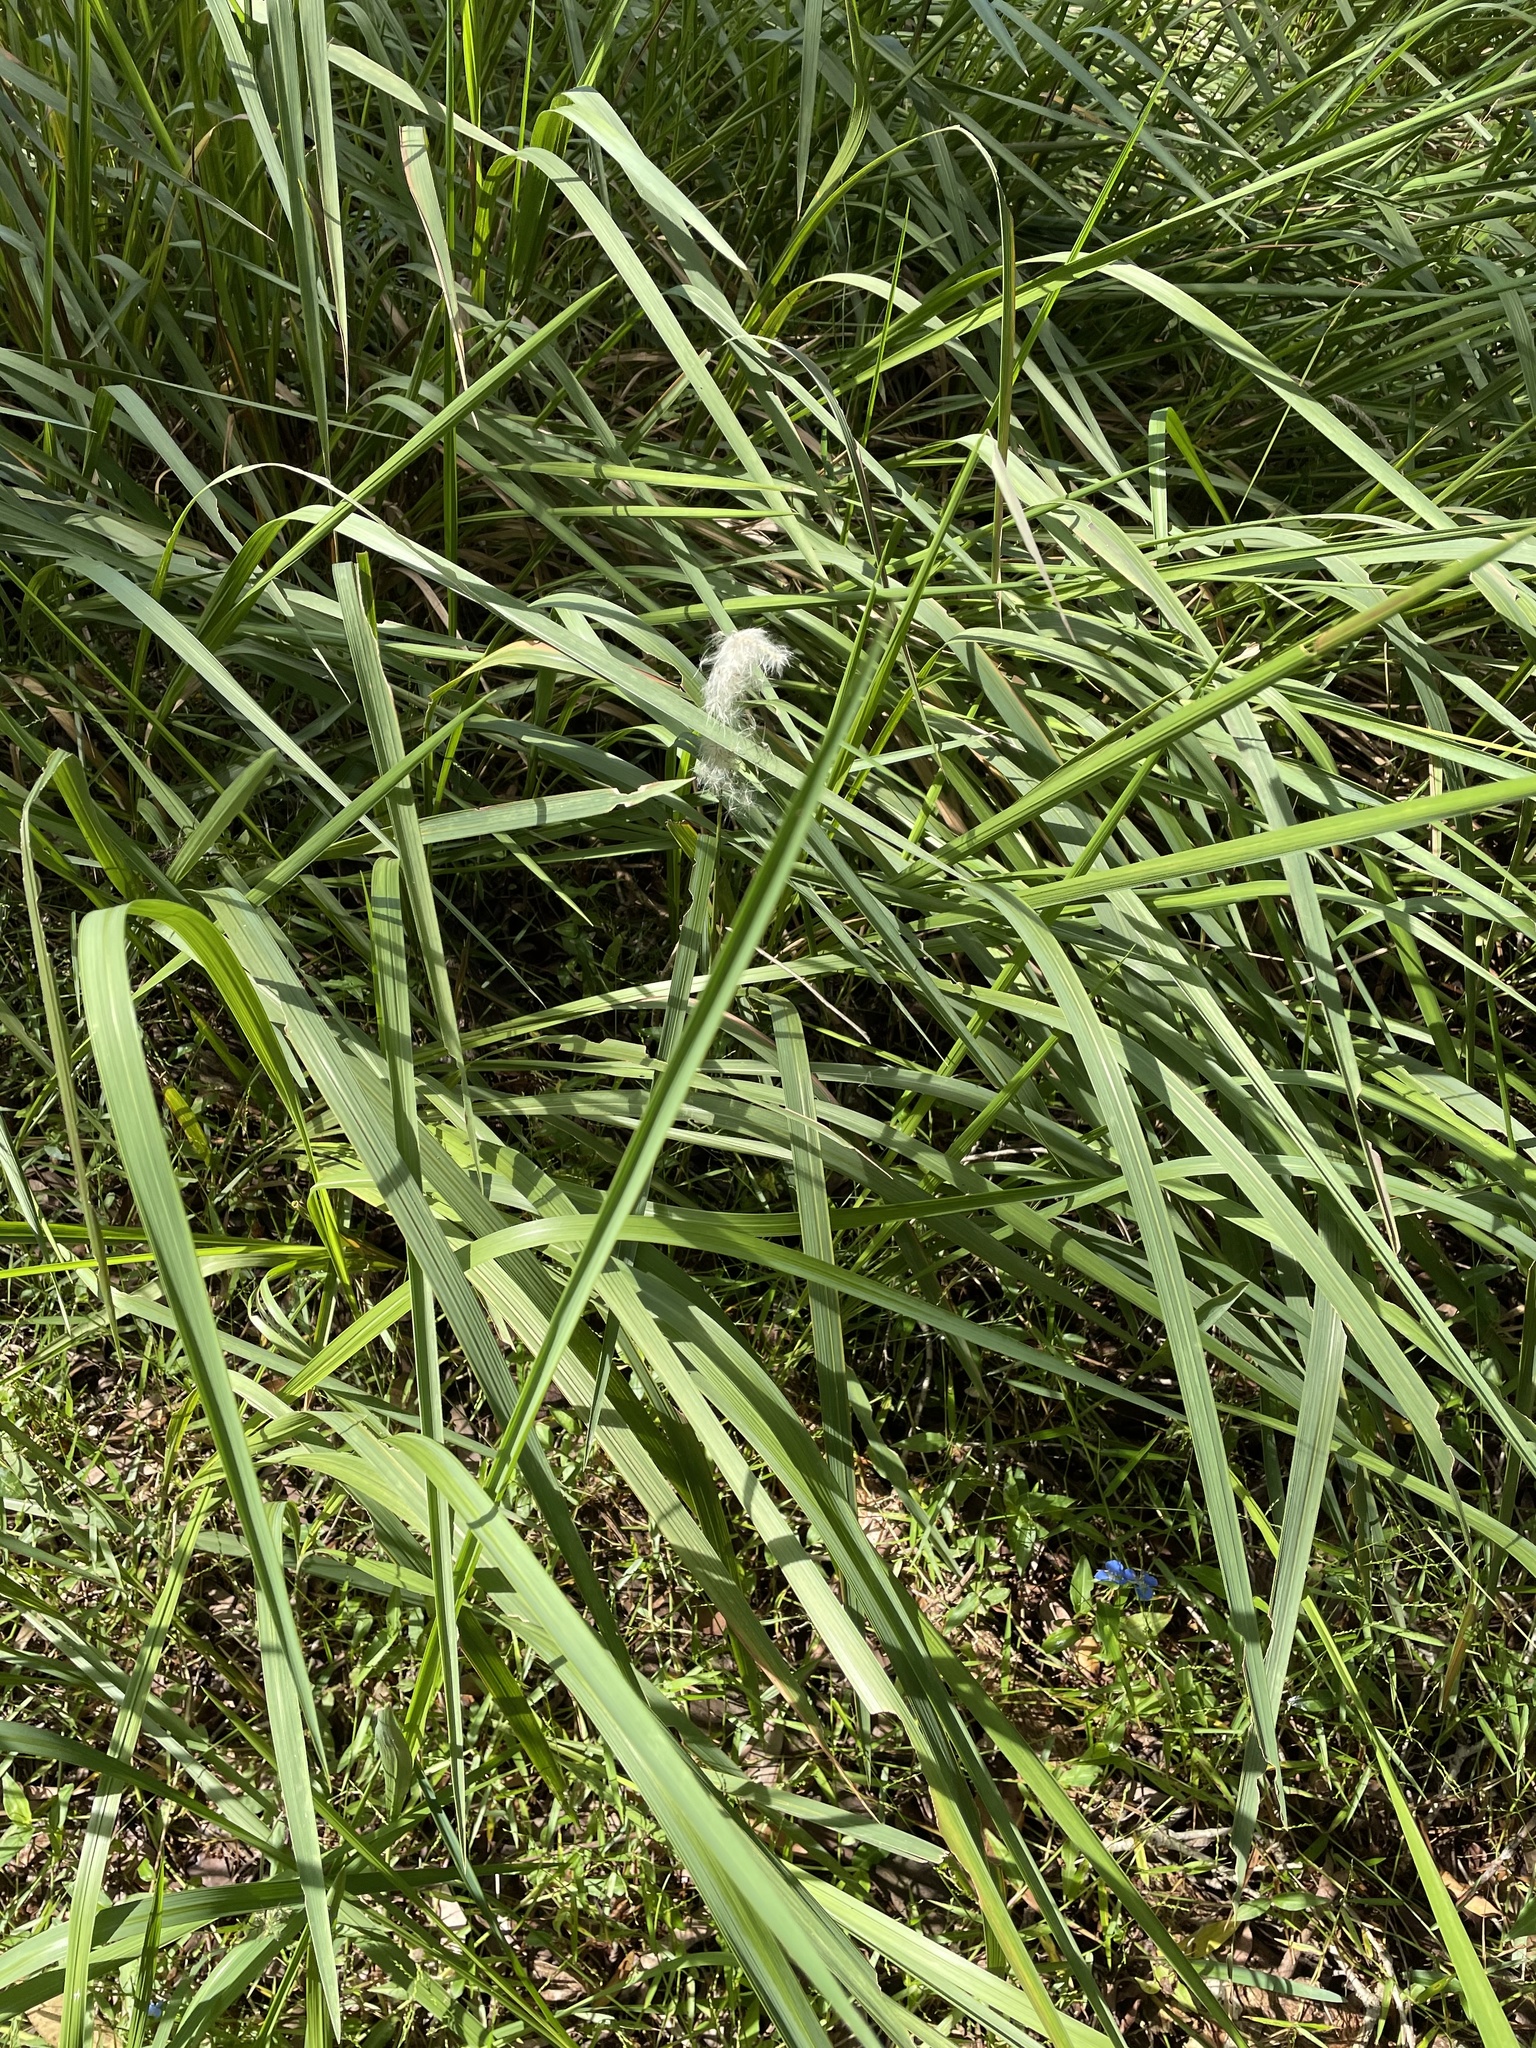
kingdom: Plantae
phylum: Tracheophyta
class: Liliopsida
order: Poales
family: Poaceae
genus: Imperata
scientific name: Imperata cylindrica
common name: Cogongrass
